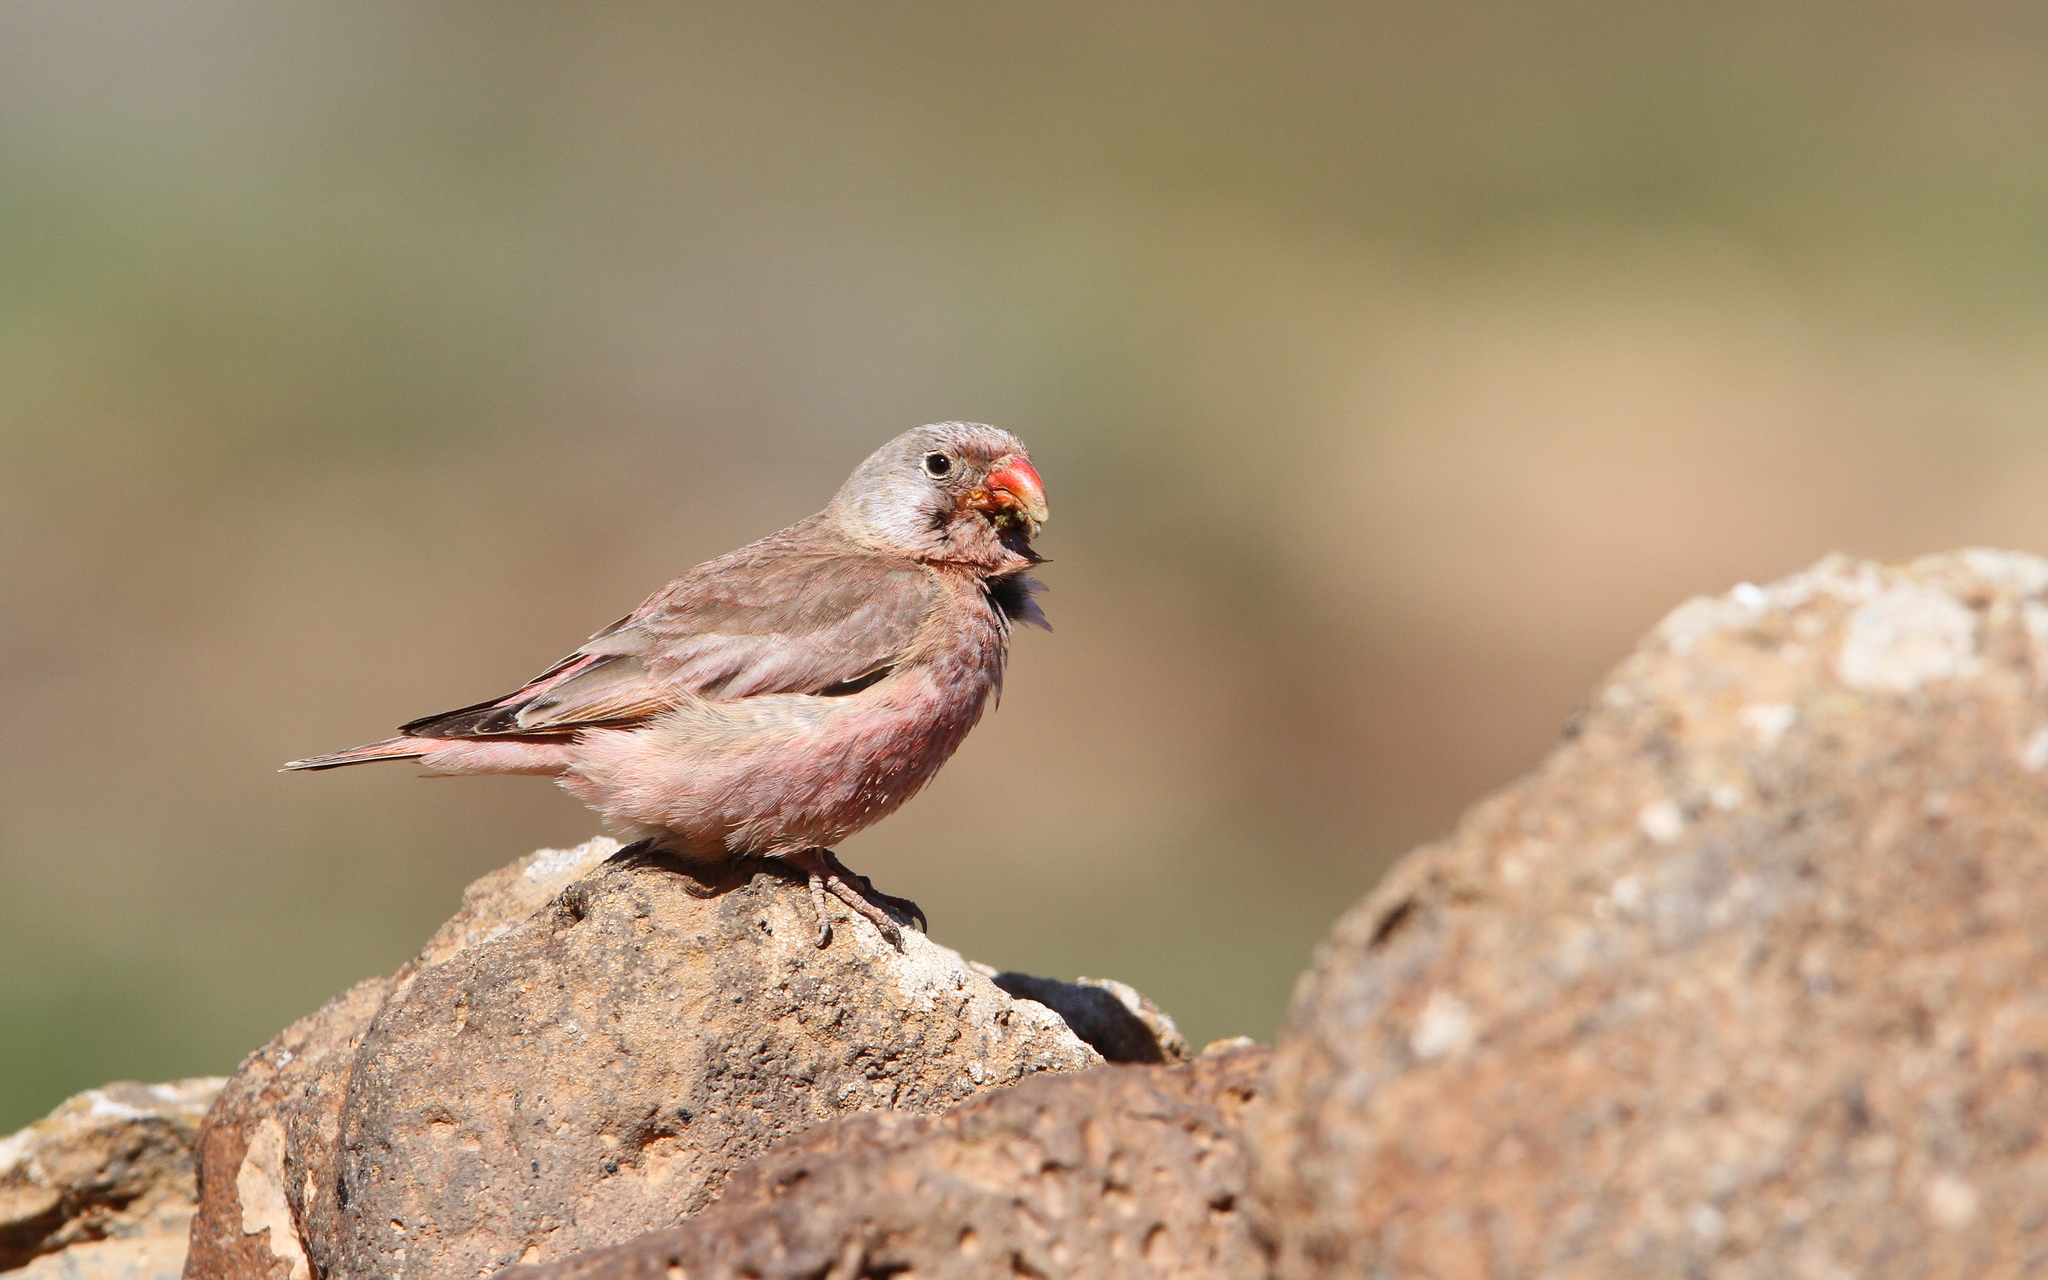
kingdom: Animalia
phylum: Chordata
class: Aves
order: Passeriformes
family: Fringillidae
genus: Bucanetes
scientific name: Bucanetes githagineus
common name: Trumpeter finch
